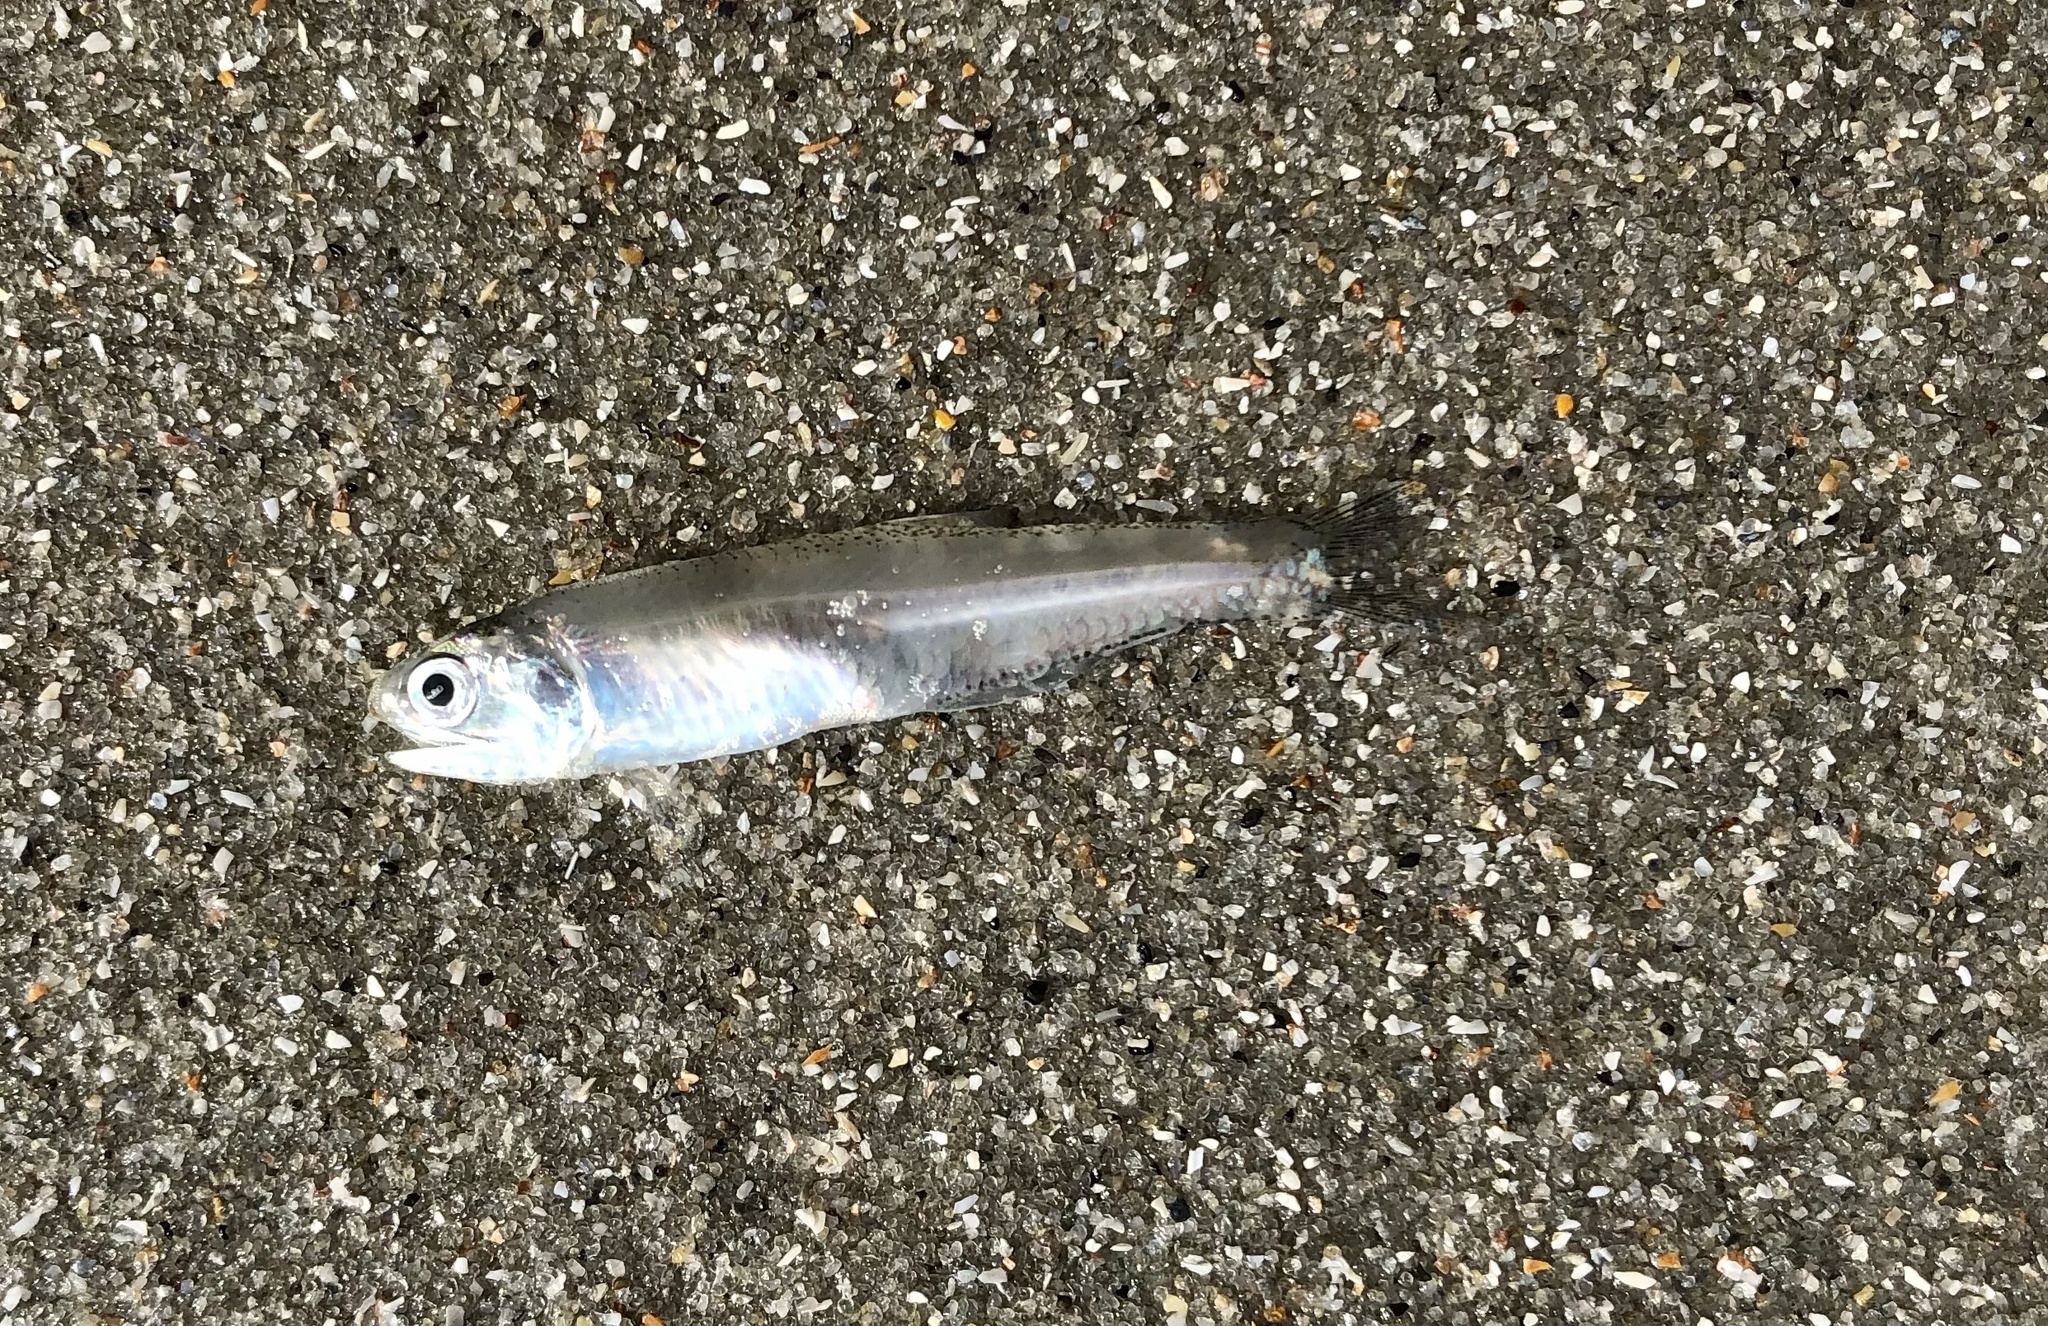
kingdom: Animalia
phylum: Chordata
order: Clupeiformes
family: Engraulidae
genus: Anchoa
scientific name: Anchoa mitchilli
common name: Bay anchovy
